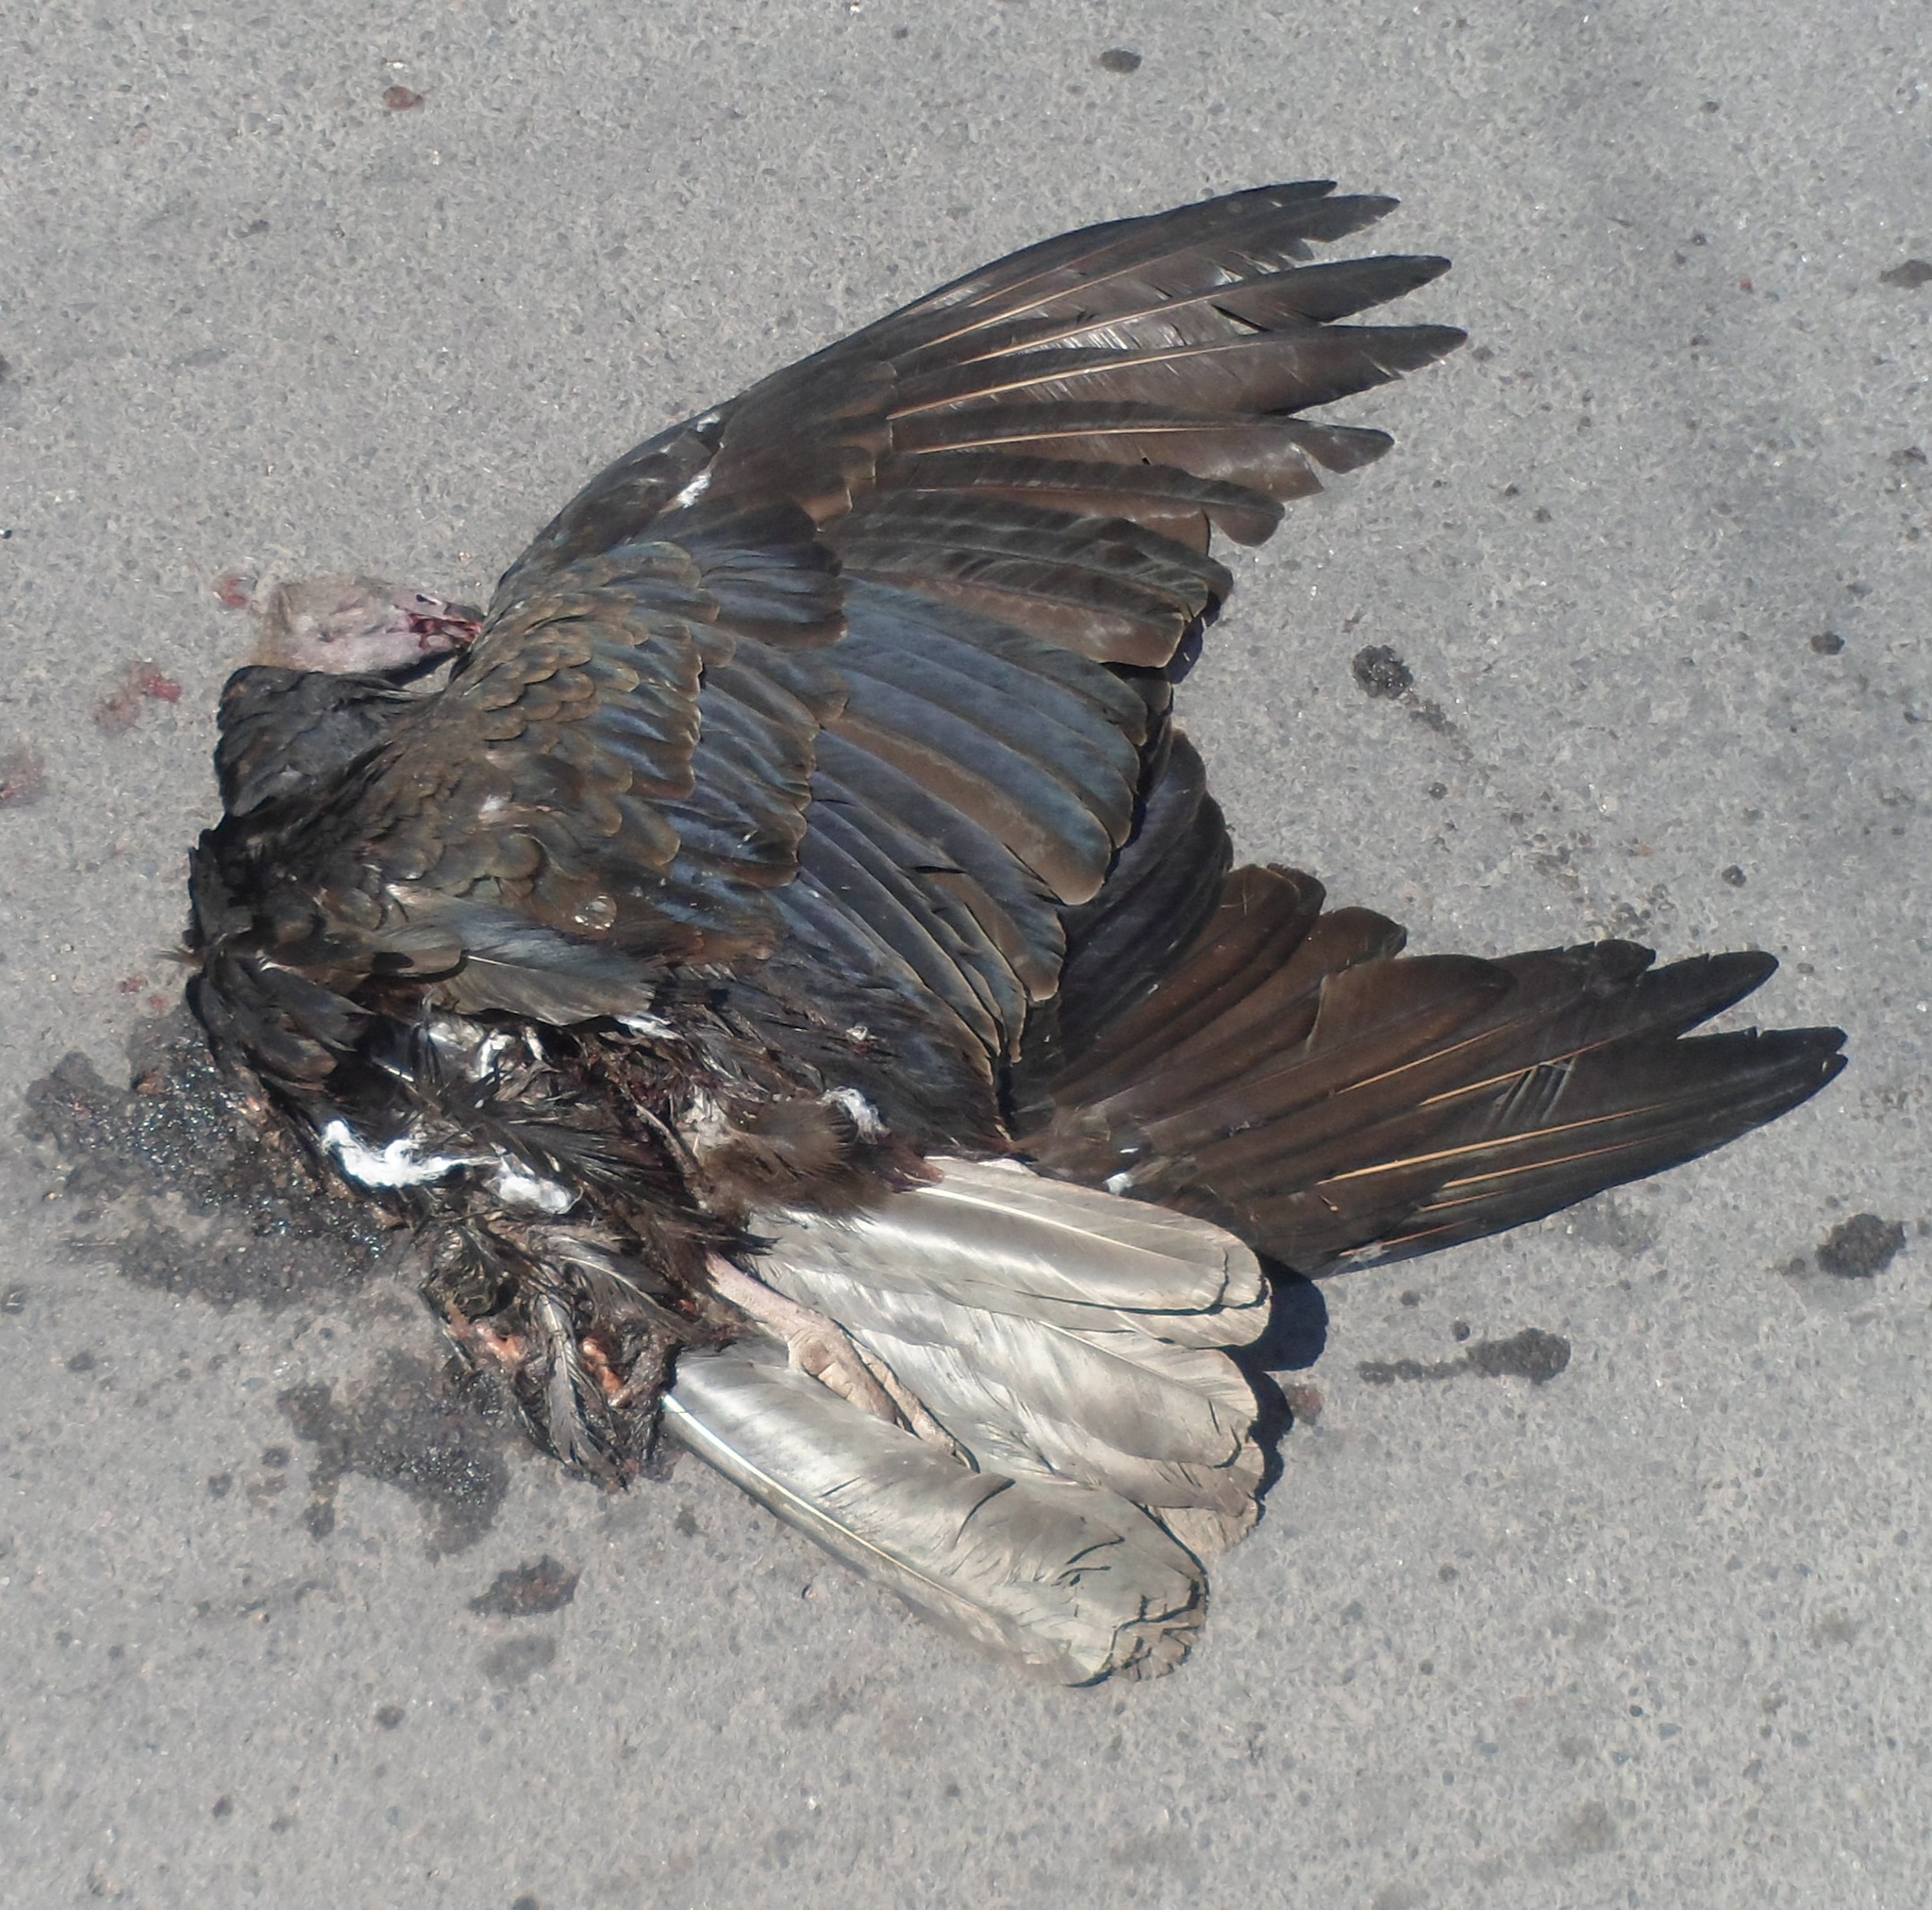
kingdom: Animalia
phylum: Chordata
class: Aves
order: Accipitriformes
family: Cathartidae
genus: Cathartes
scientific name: Cathartes aura
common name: Turkey vulture
